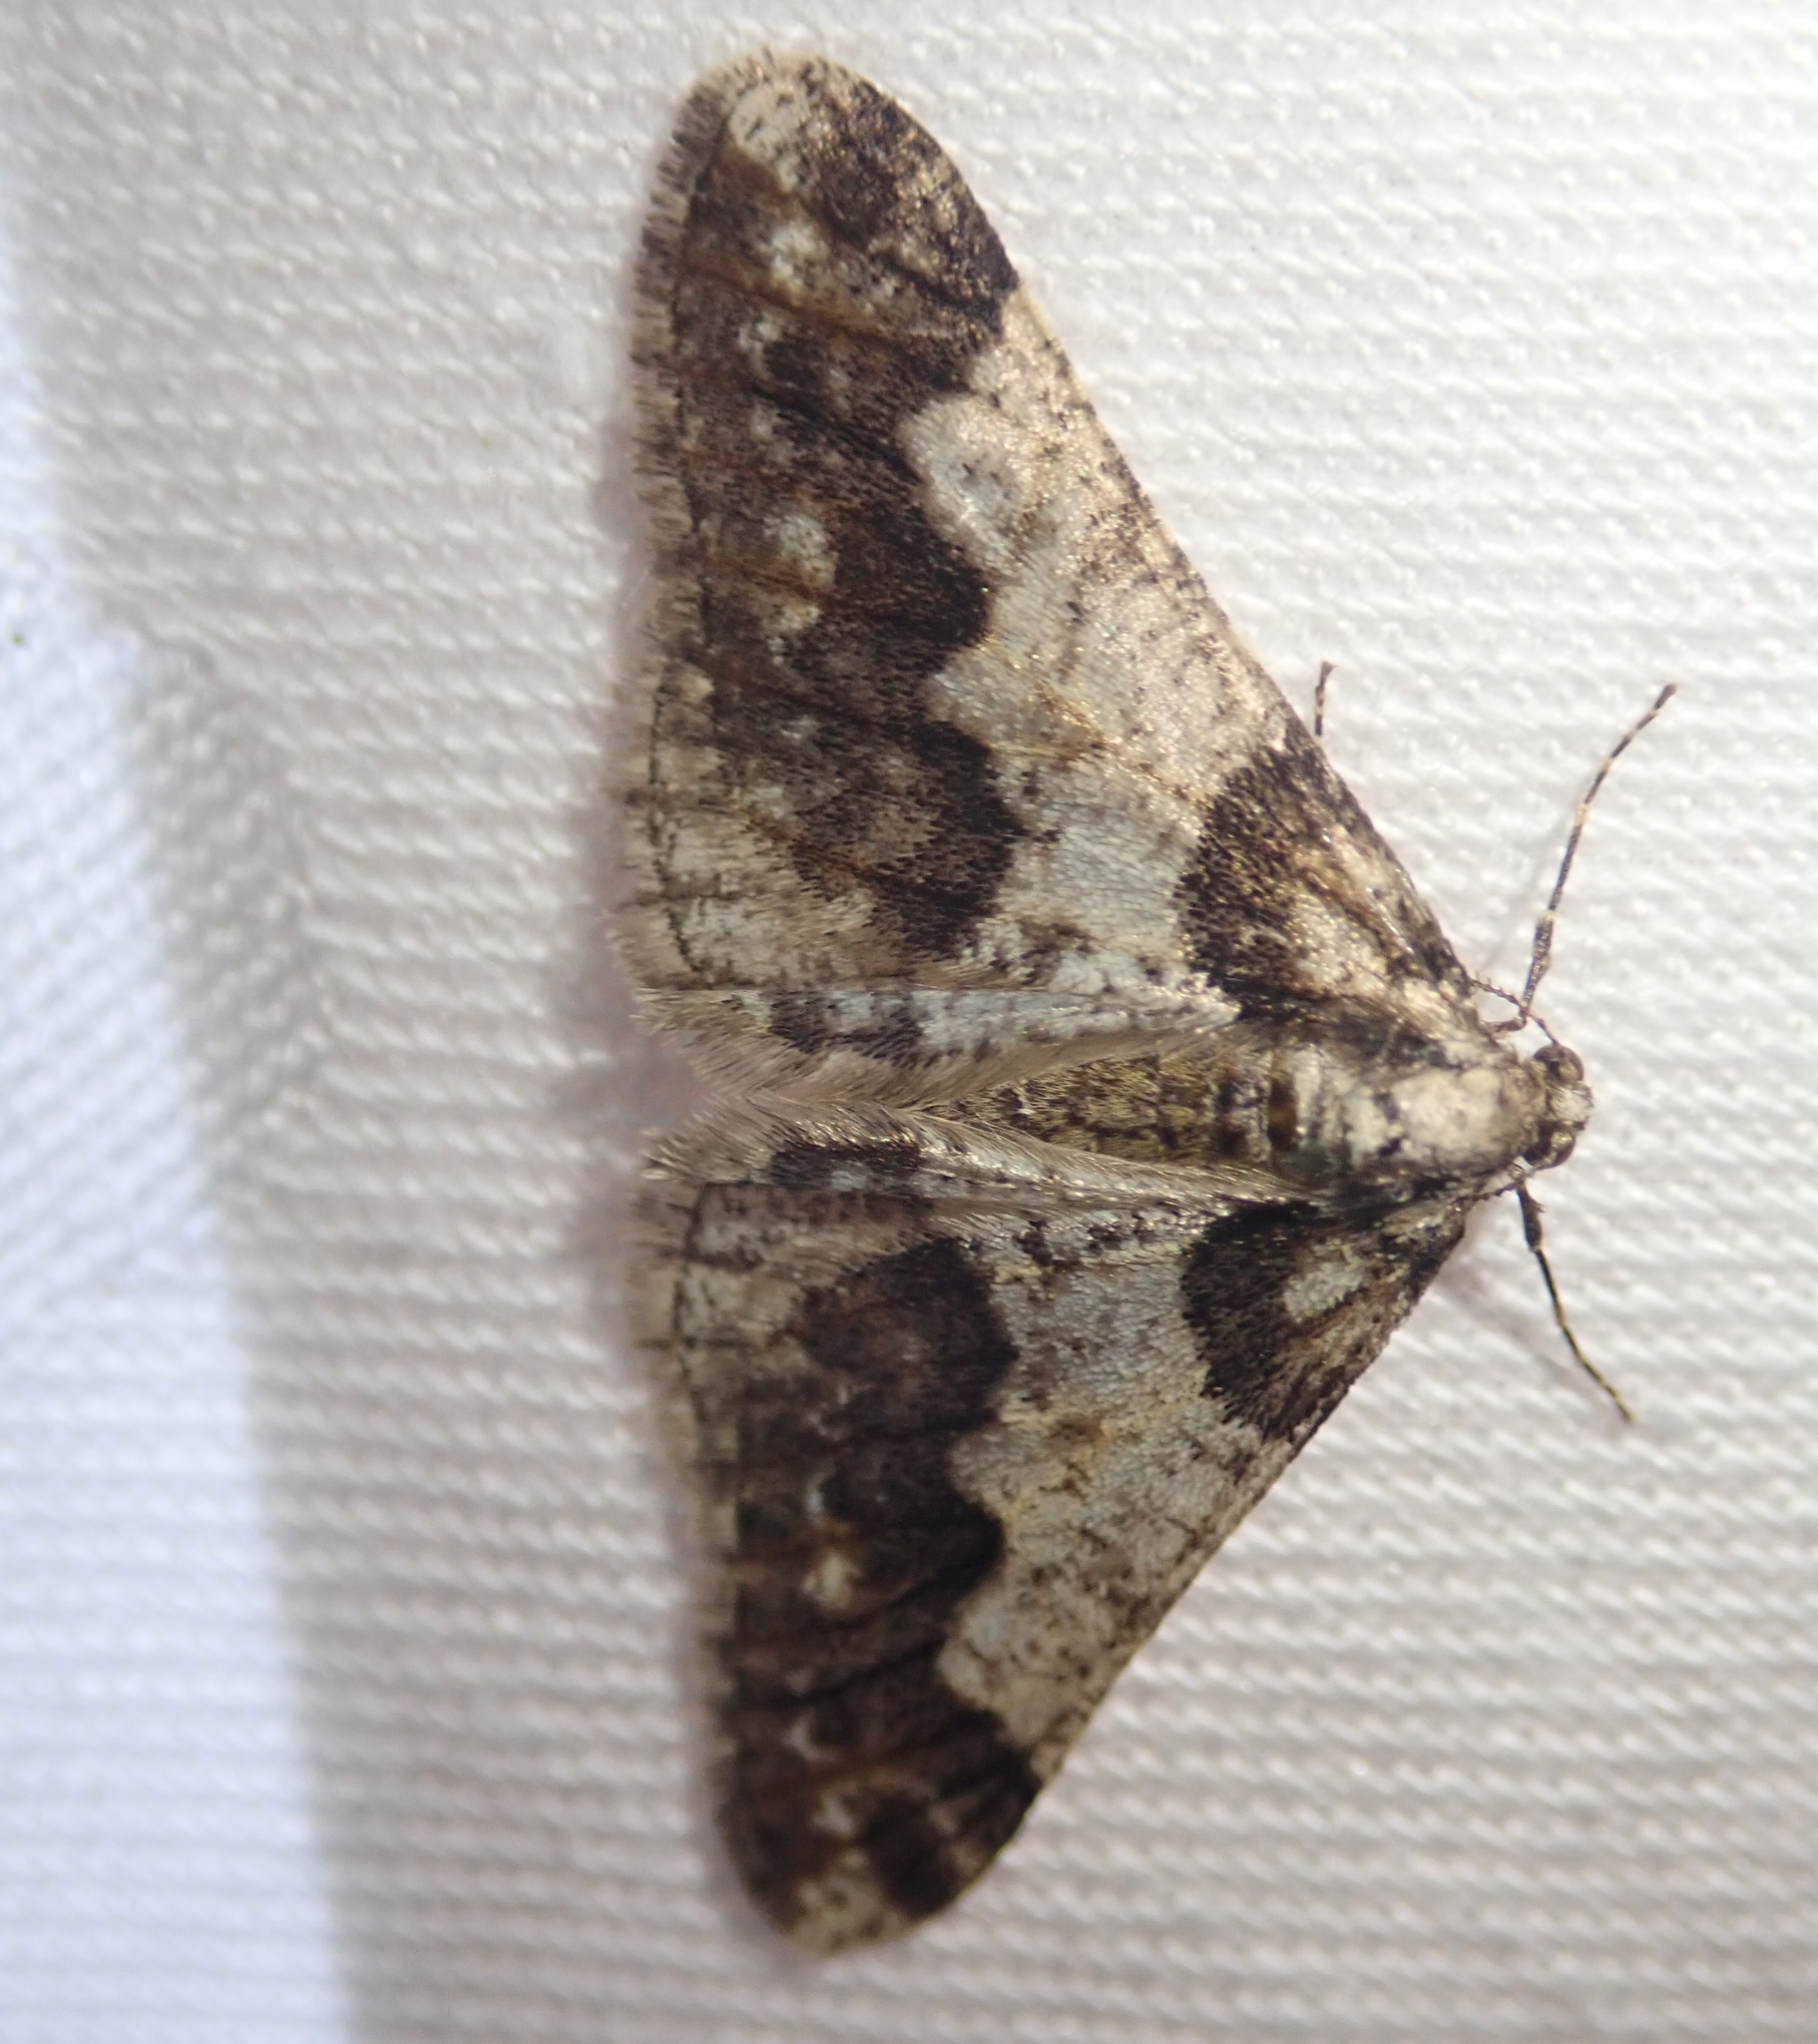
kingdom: Animalia
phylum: Arthropoda
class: Insecta
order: Lepidoptera
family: Geometridae
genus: Agriopis
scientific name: Agriopis leucophaearia
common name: Spring usher
